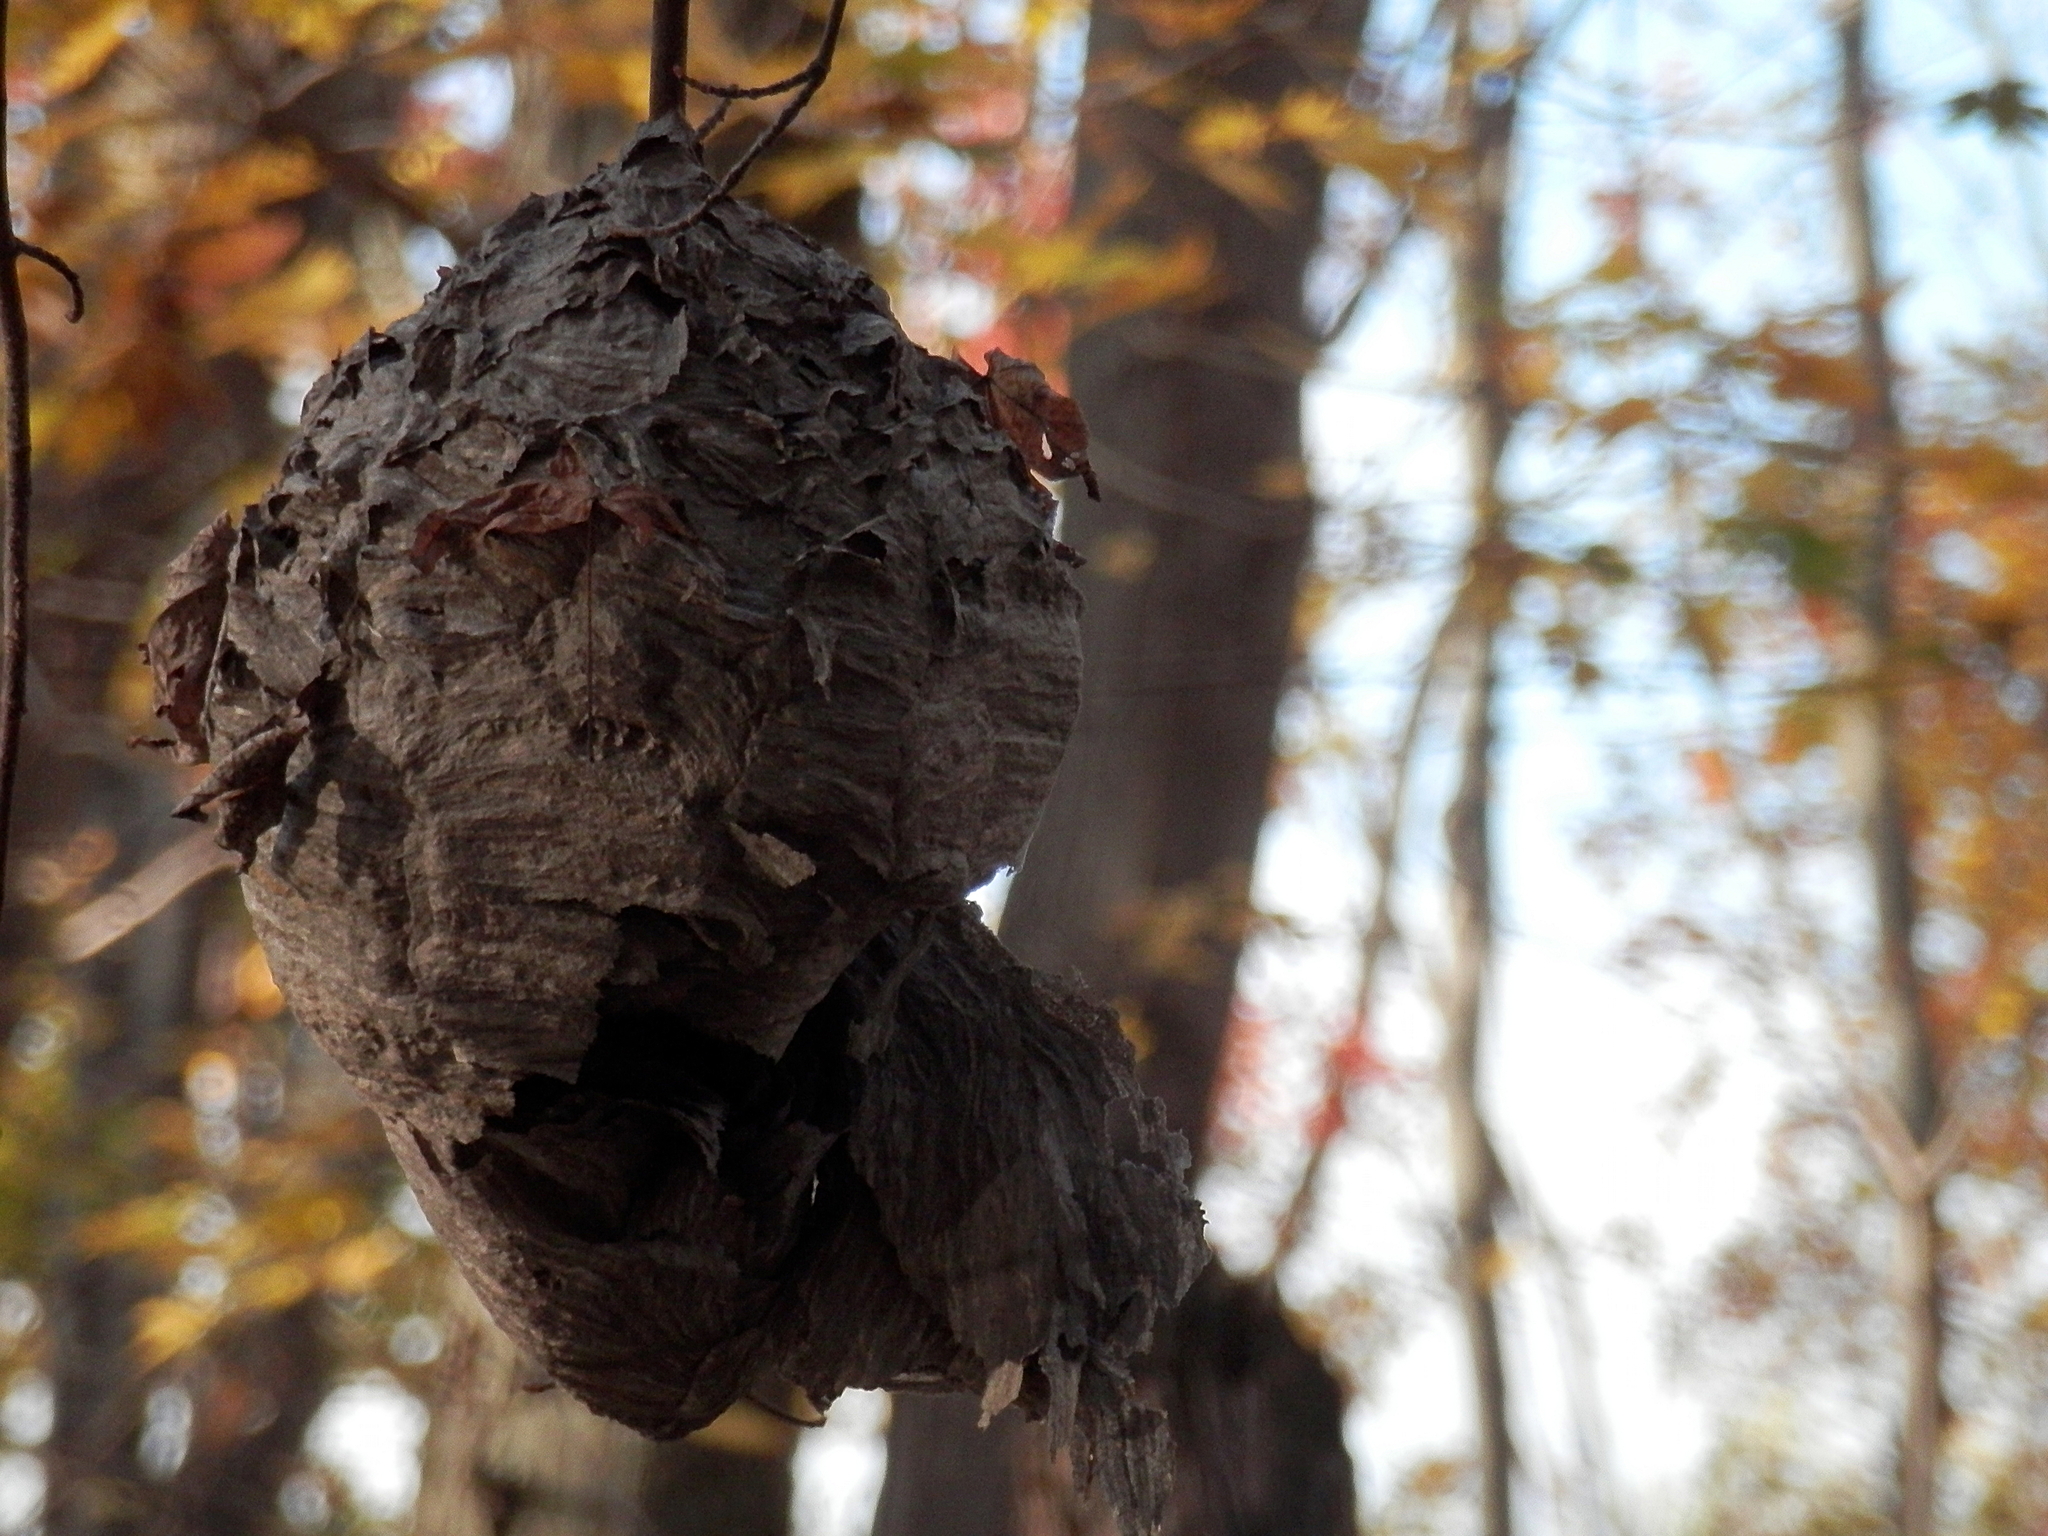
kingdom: Animalia
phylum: Arthropoda
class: Insecta
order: Hymenoptera
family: Vespidae
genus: Dolichovespula
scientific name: Dolichovespula
